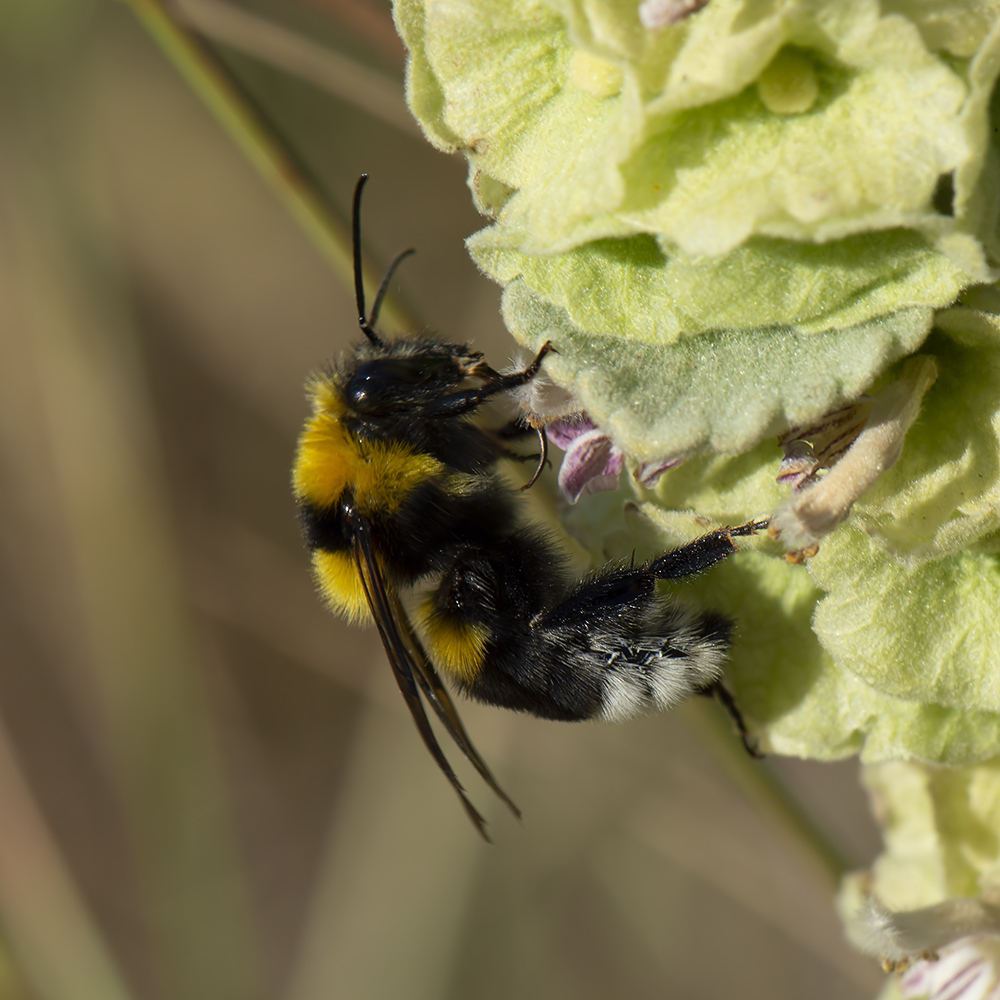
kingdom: Animalia
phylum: Arthropoda
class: Insecta
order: Hymenoptera
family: Apidae
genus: Bombus
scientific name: Bombus argillaceus
